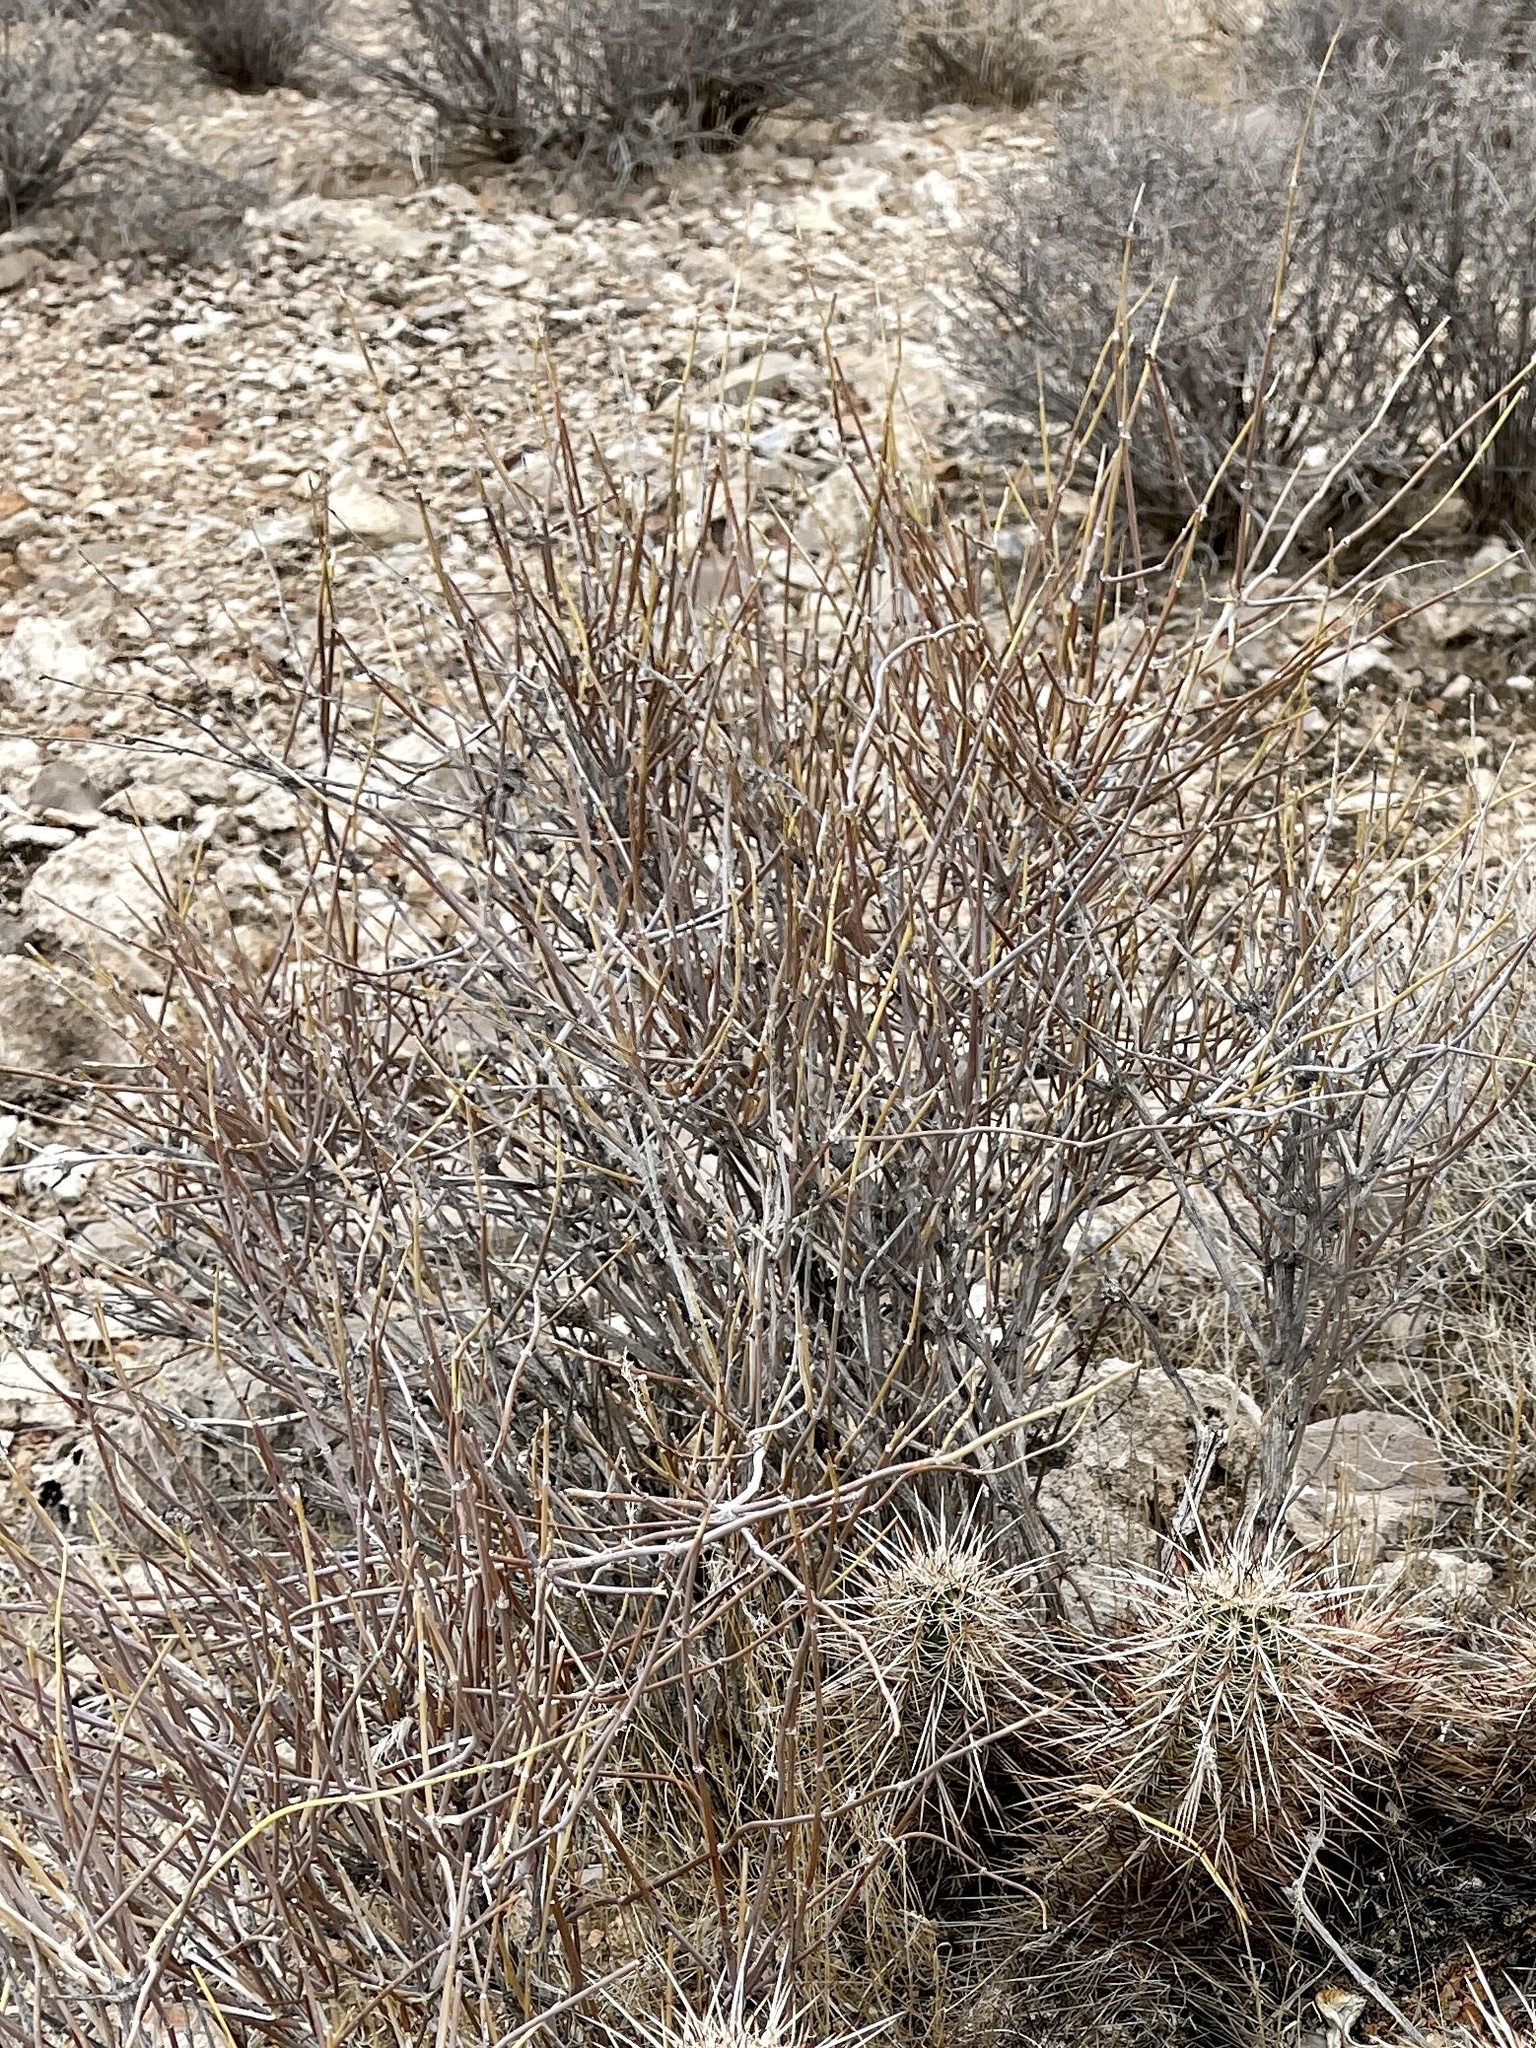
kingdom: Plantae
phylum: Tracheophyta
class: Gnetopsida
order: Ephedrales
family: Ephedraceae
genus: Ephedra
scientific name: Ephedra nevadensis
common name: Gray ephedra
